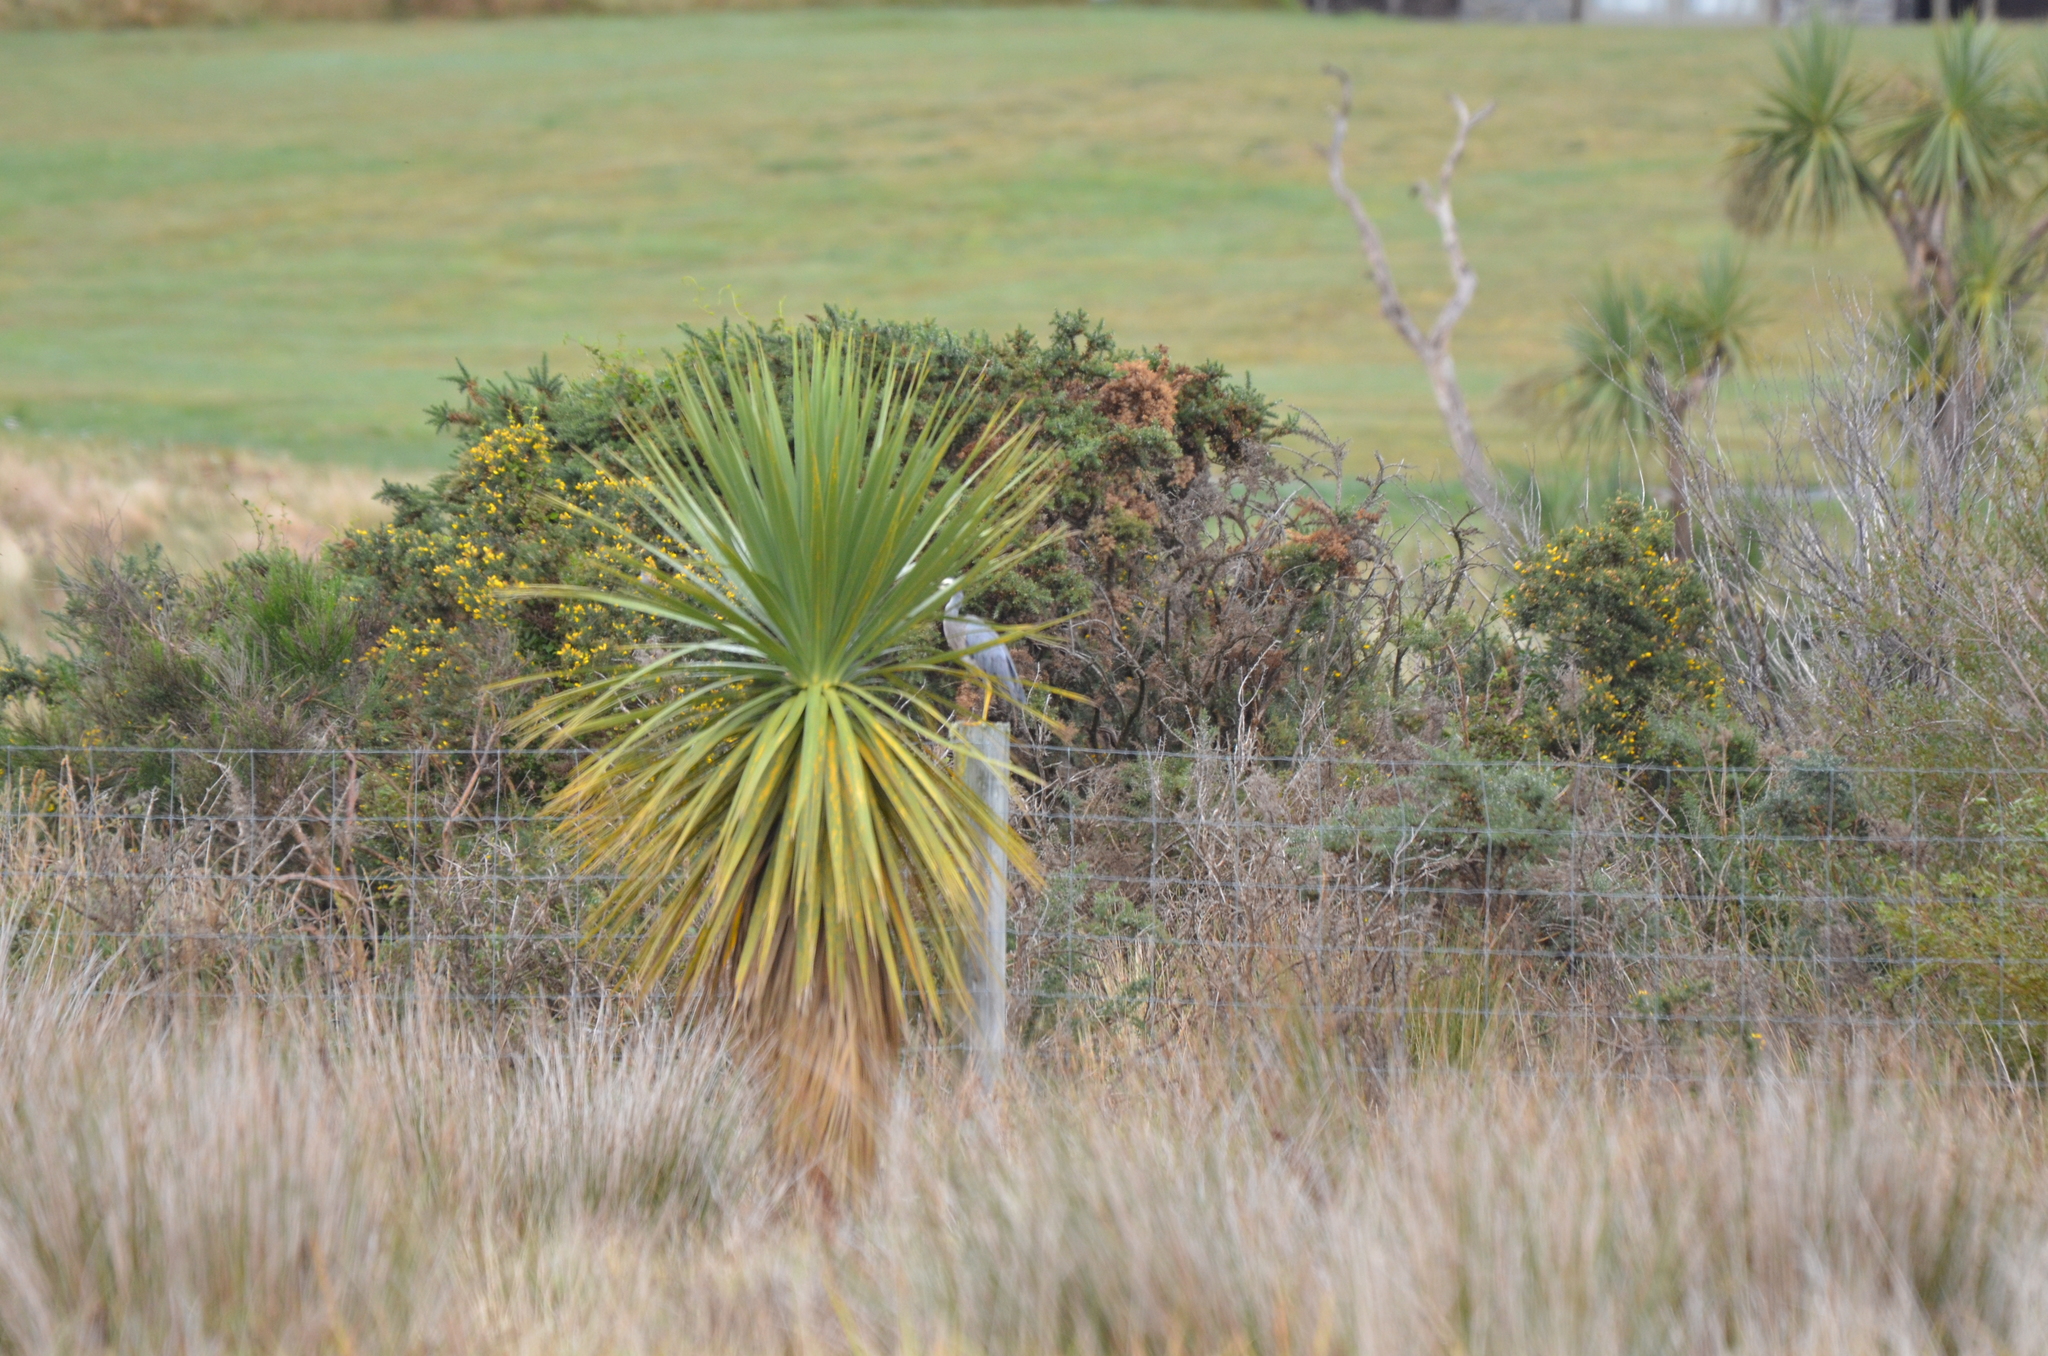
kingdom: Animalia
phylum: Chordata
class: Aves
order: Pelecaniformes
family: Ardeidae
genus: Egretta
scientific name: Egretta novaehollandiae
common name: White-faced heron
